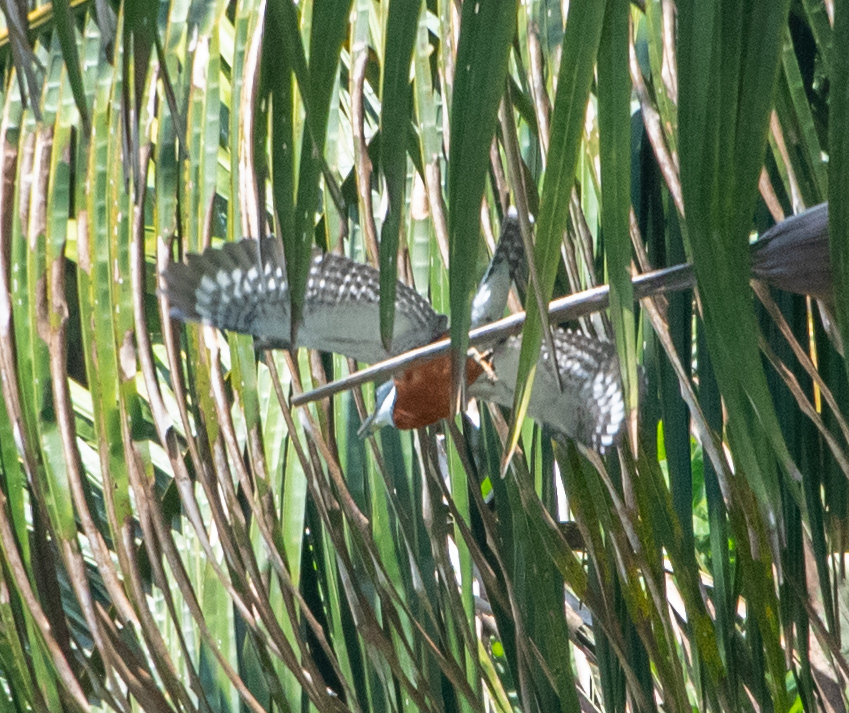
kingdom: Animalia
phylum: Chordata
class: Aves
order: Coraciiformes
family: Alcedinidae
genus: Megaceryle
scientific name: Megaceryle torquata
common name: Ringed kingfisher
